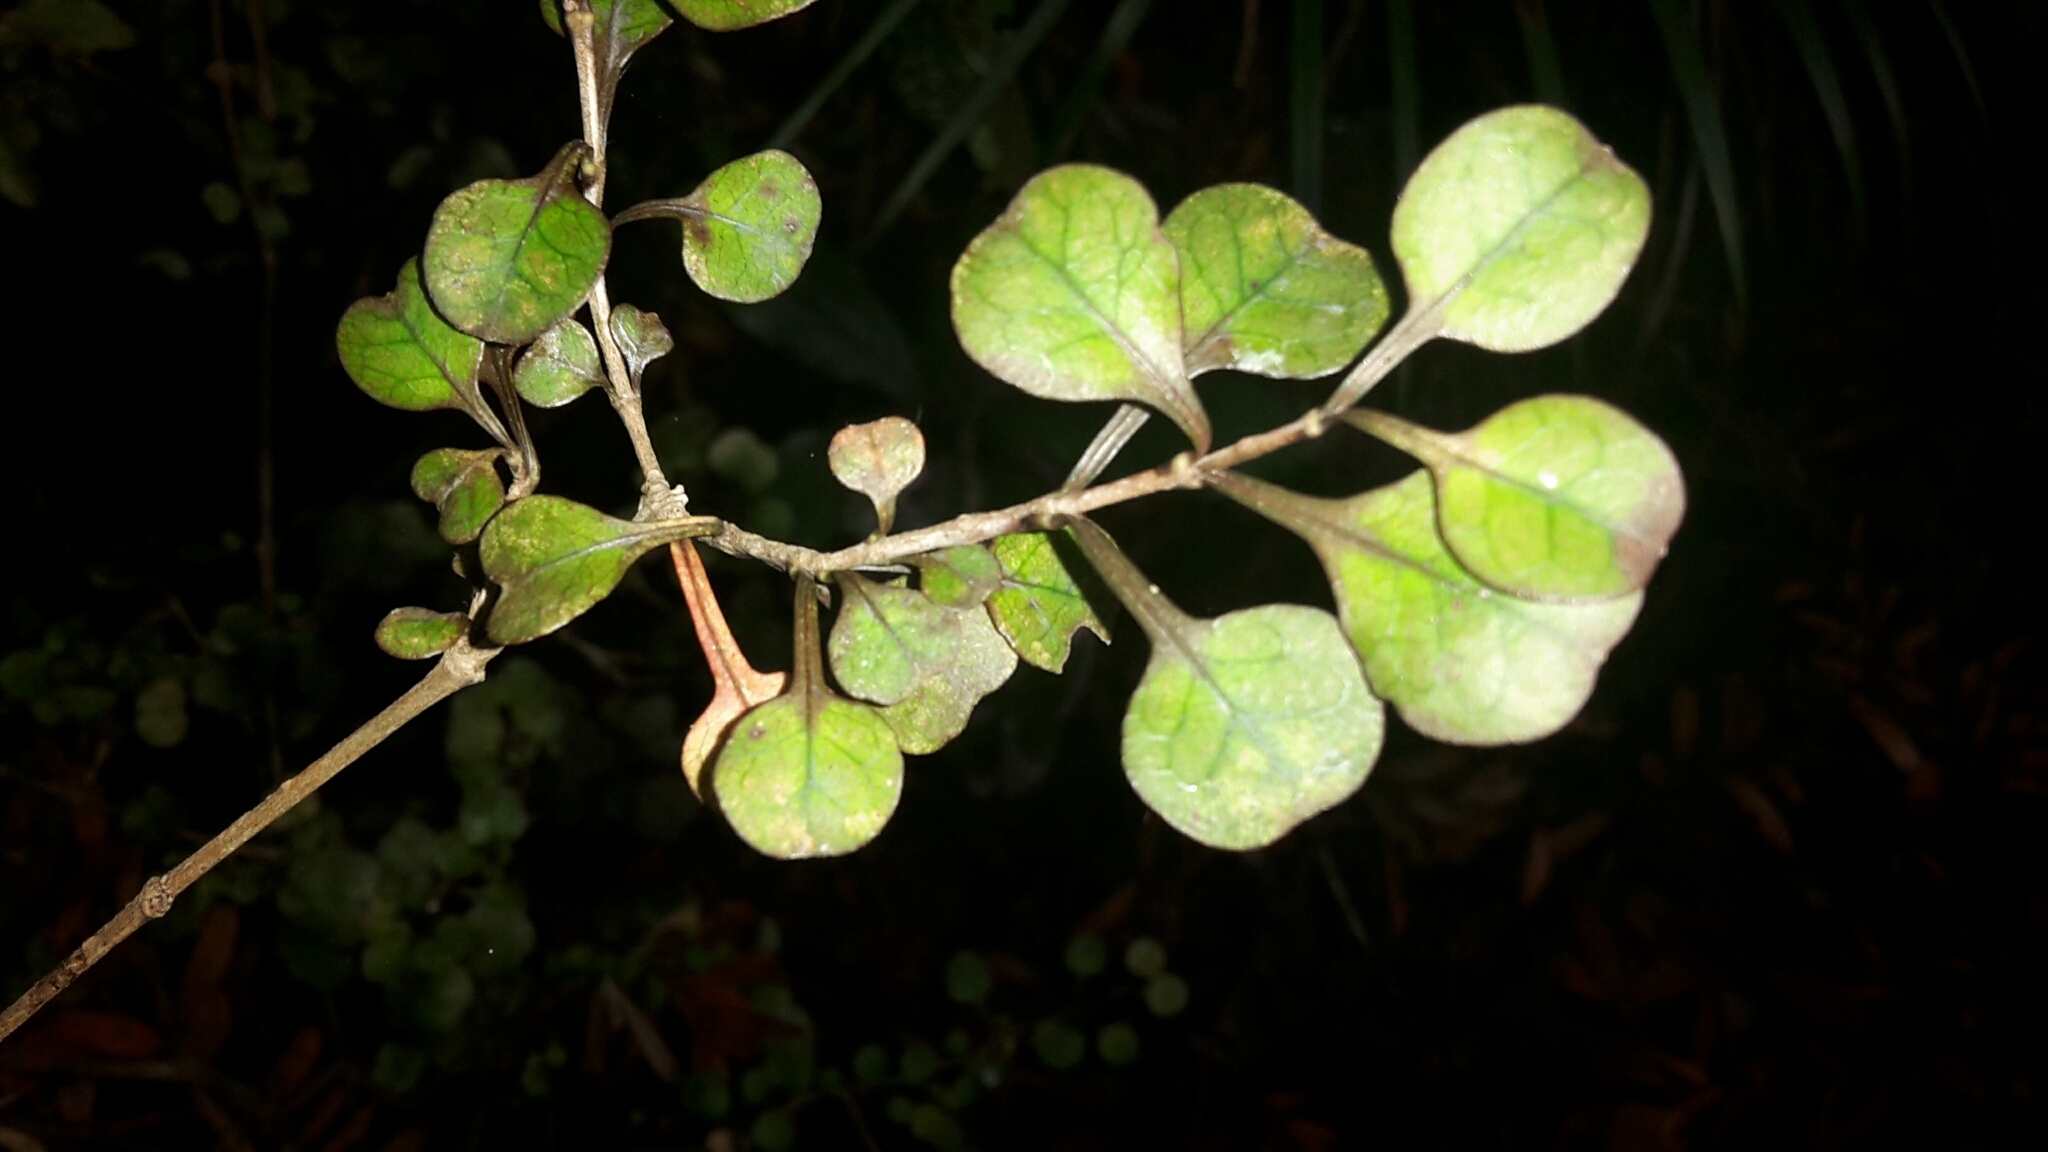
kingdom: Plantae
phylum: Tracheophyta
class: Magnoliopsida
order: Gentianales
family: Rubiaceae
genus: Coprosma
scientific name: Coprosma spathulata
